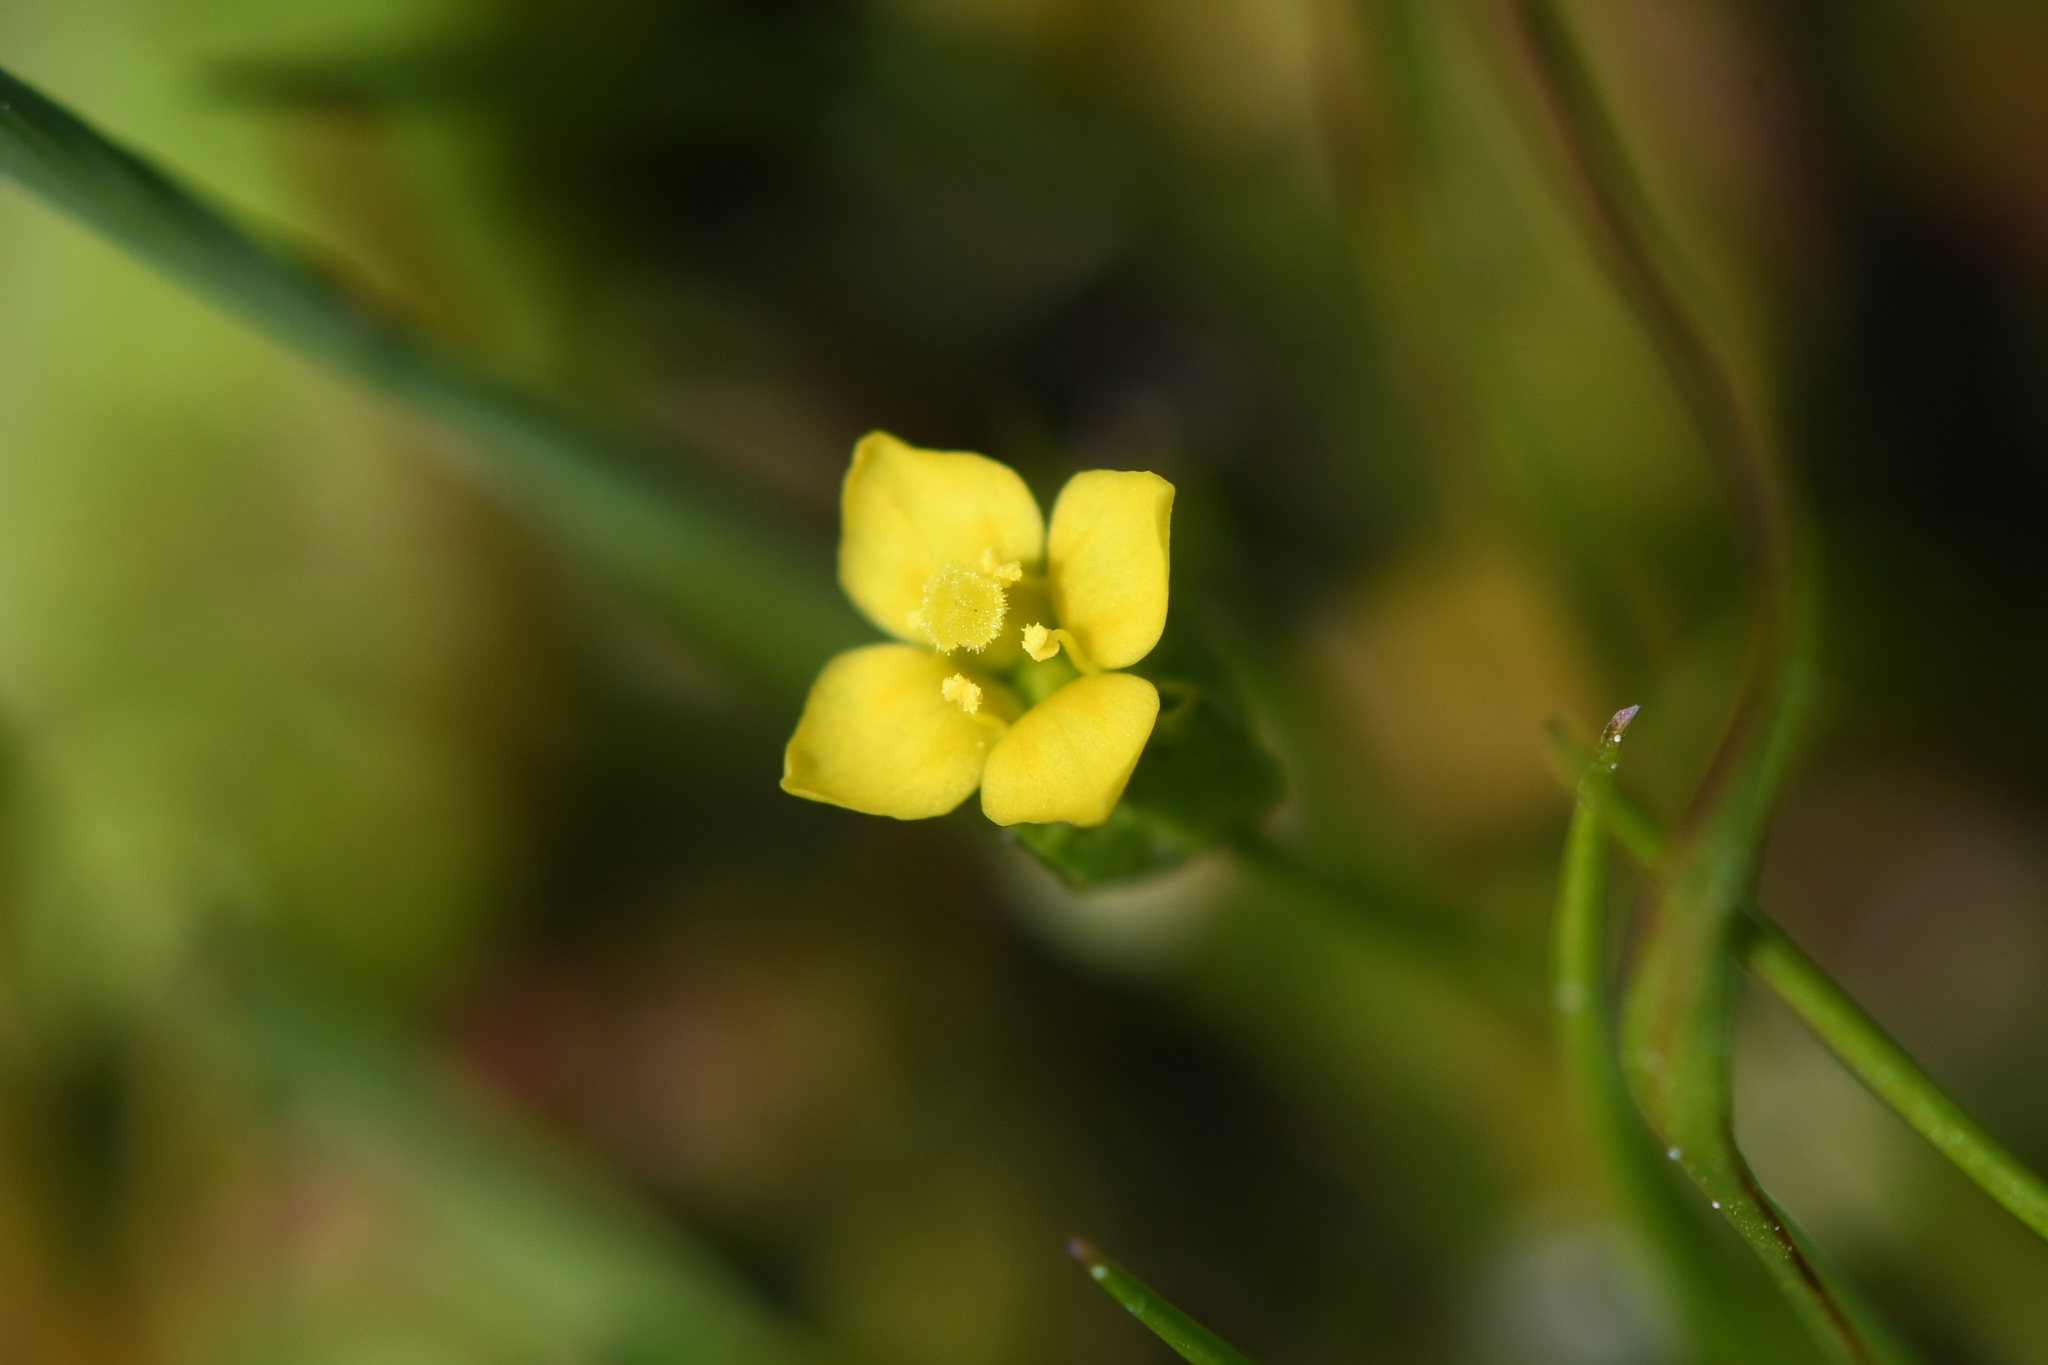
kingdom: Plantae
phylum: Tracheophyta
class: Magnoliopsida
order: Gentianales
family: Gentianaceae
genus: Microcala
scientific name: Microcala quadrangularis
